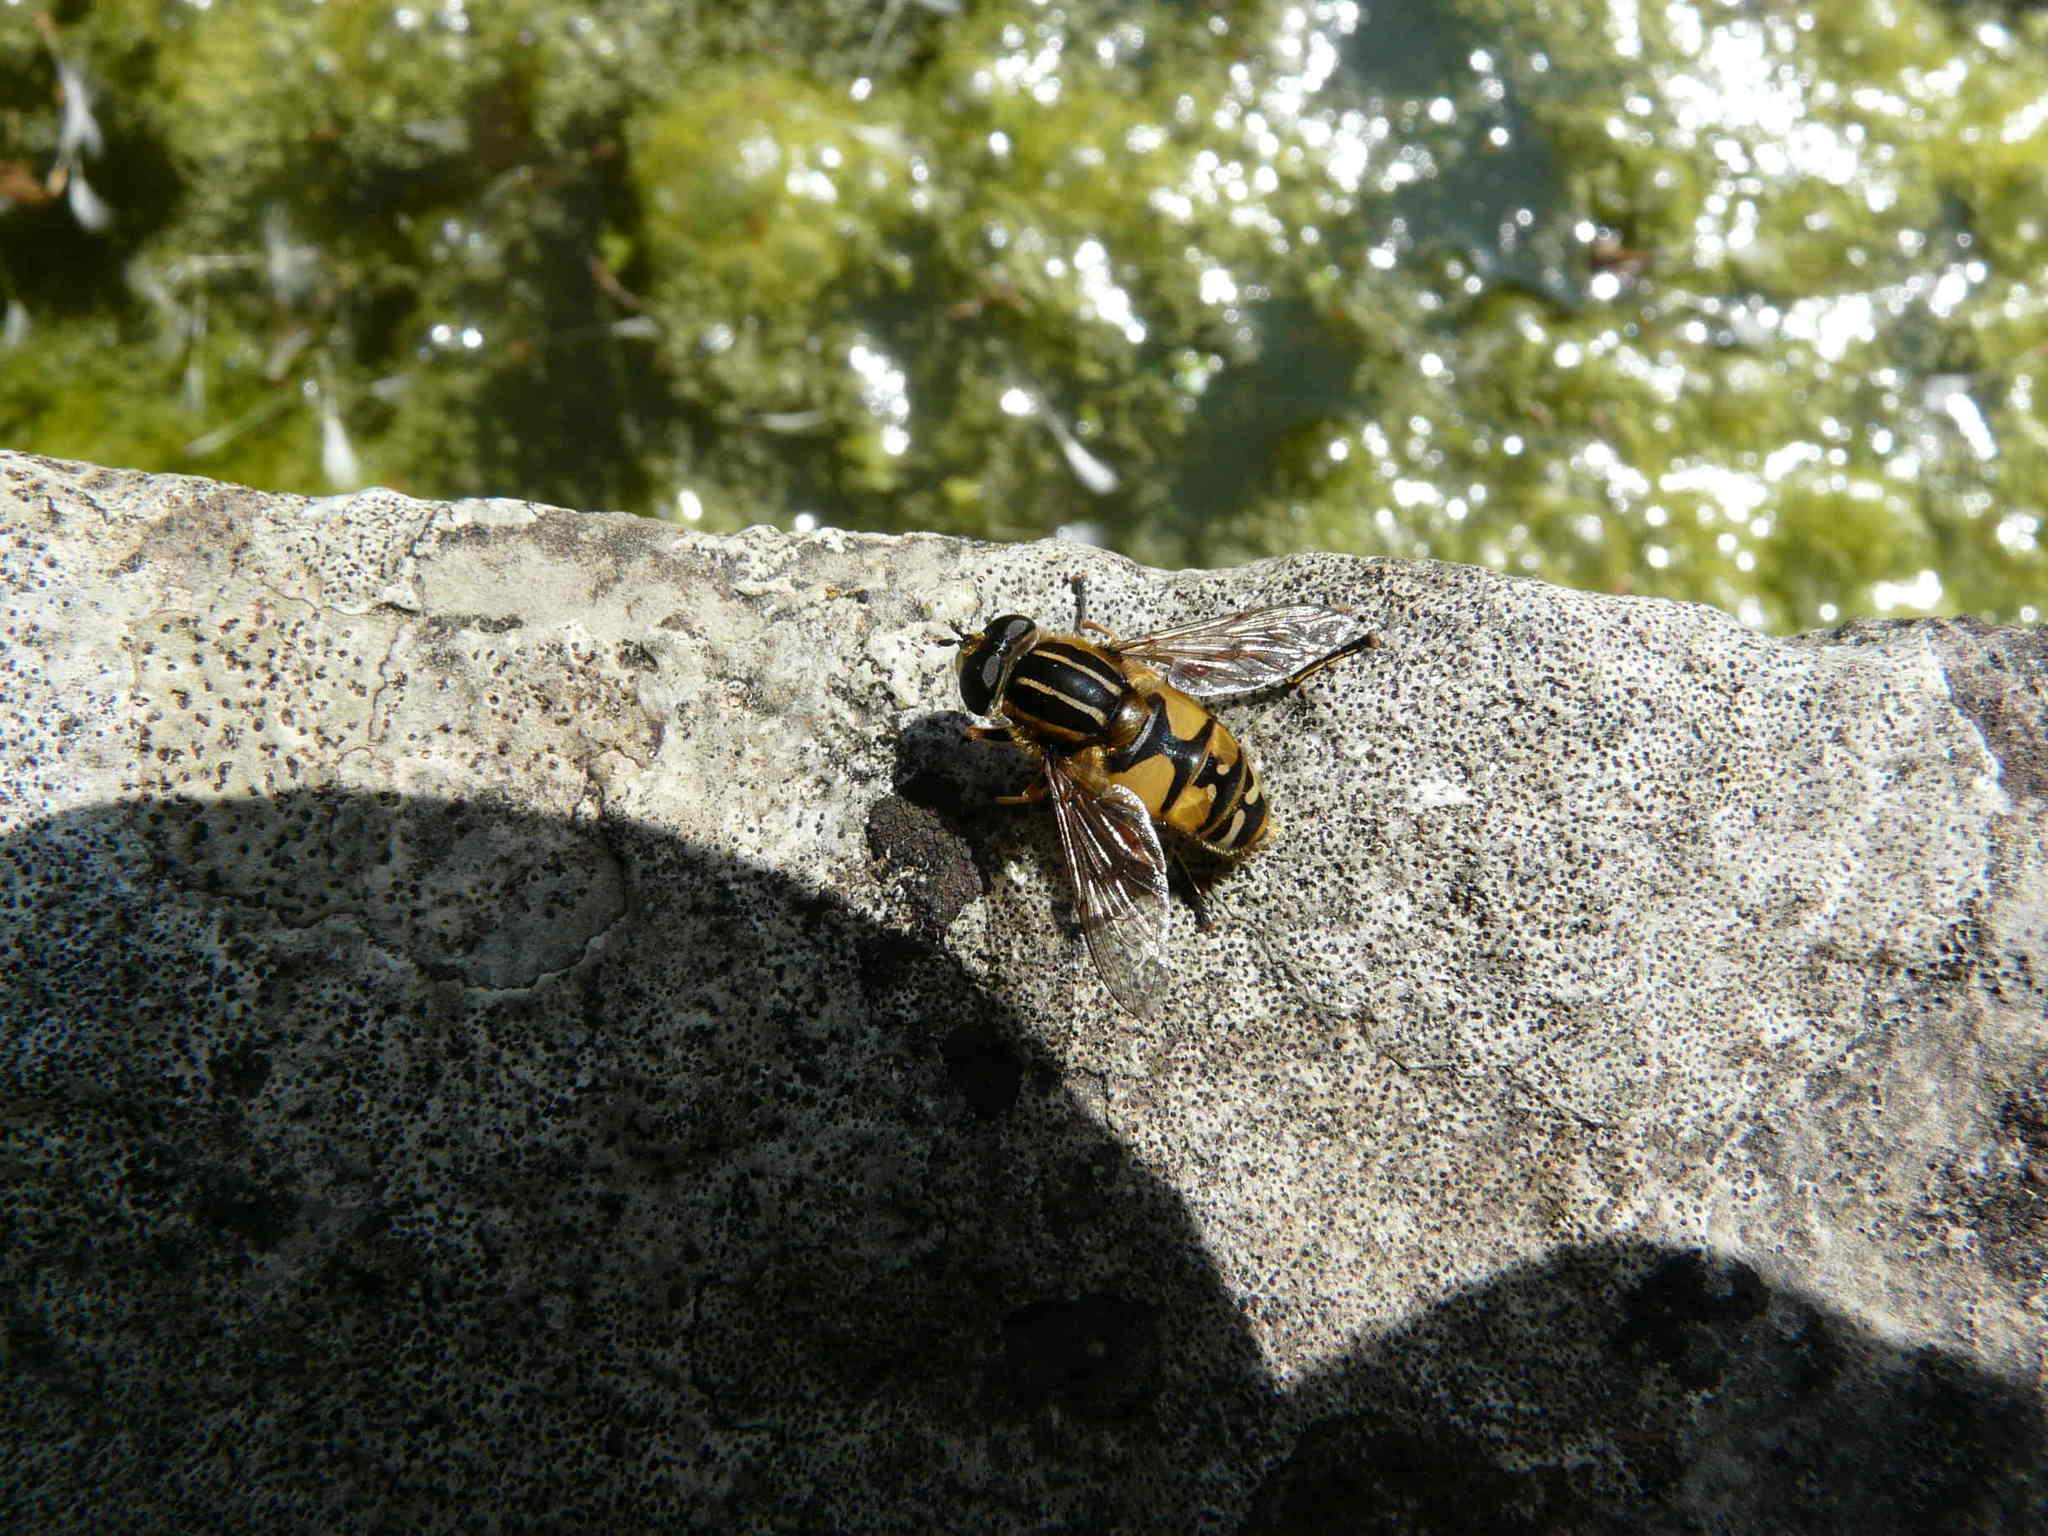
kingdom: Animalia
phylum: Arthropoda
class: Insecta
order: Diptera
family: Syrphidae
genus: Helophilus
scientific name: Helophilus pendulus
